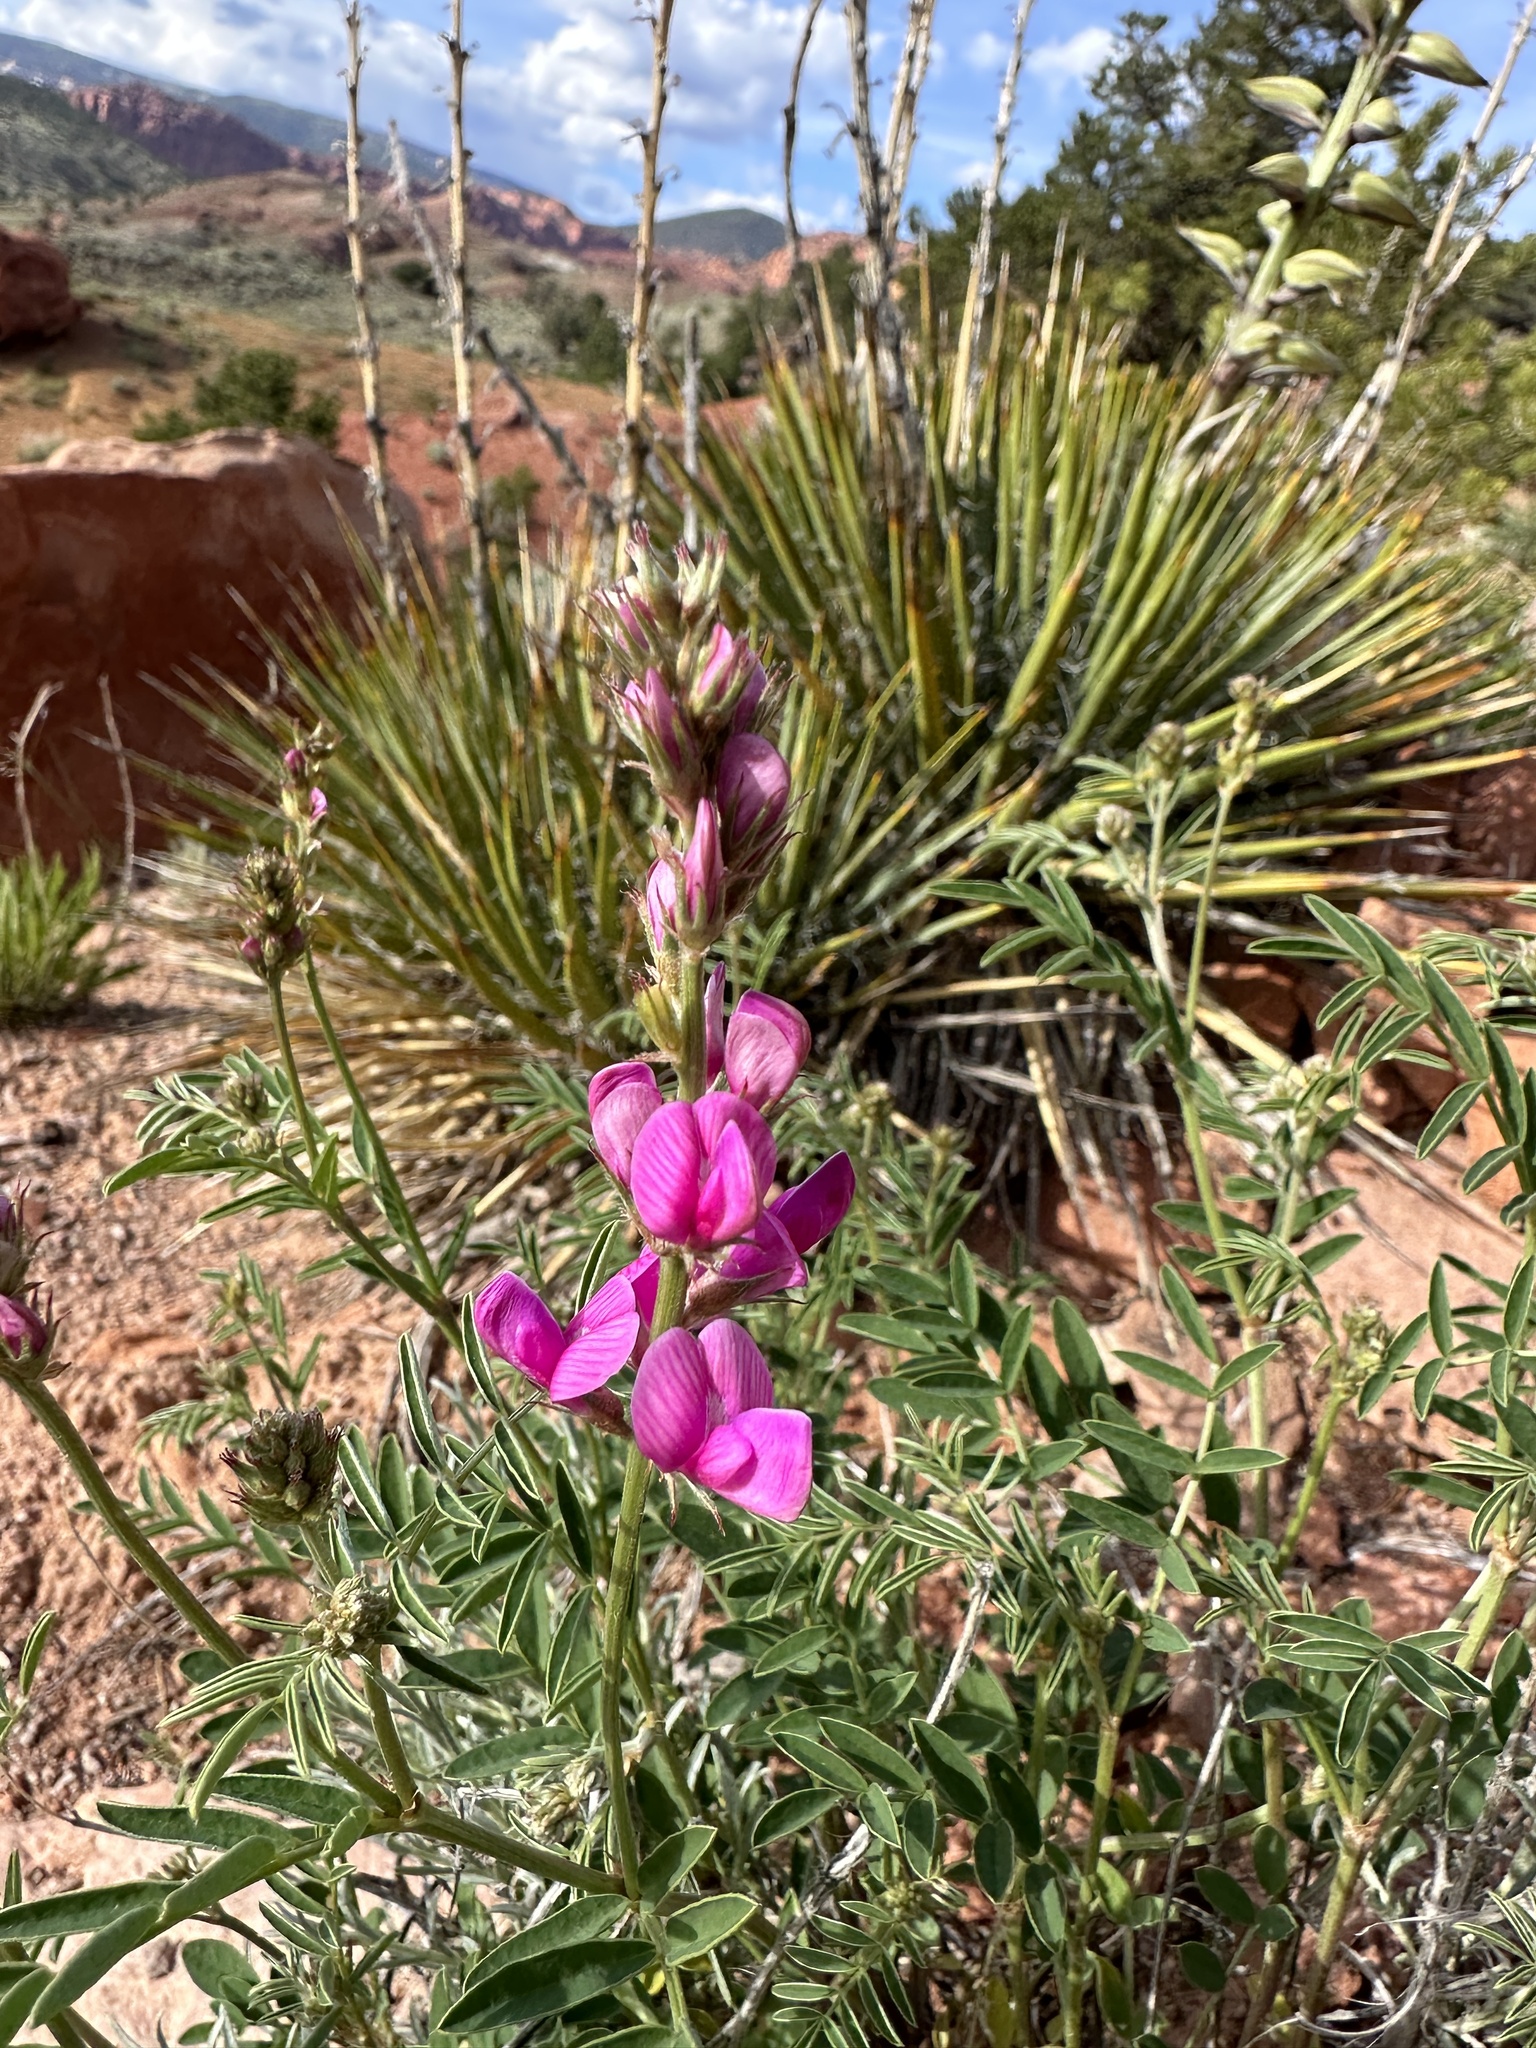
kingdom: Plantae
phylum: Tracheophyta
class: Magnoliopsida
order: Fabales
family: Fabaceae
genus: Hedysarum
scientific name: Hedysarum boreale
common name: Northern sweet-vetch
